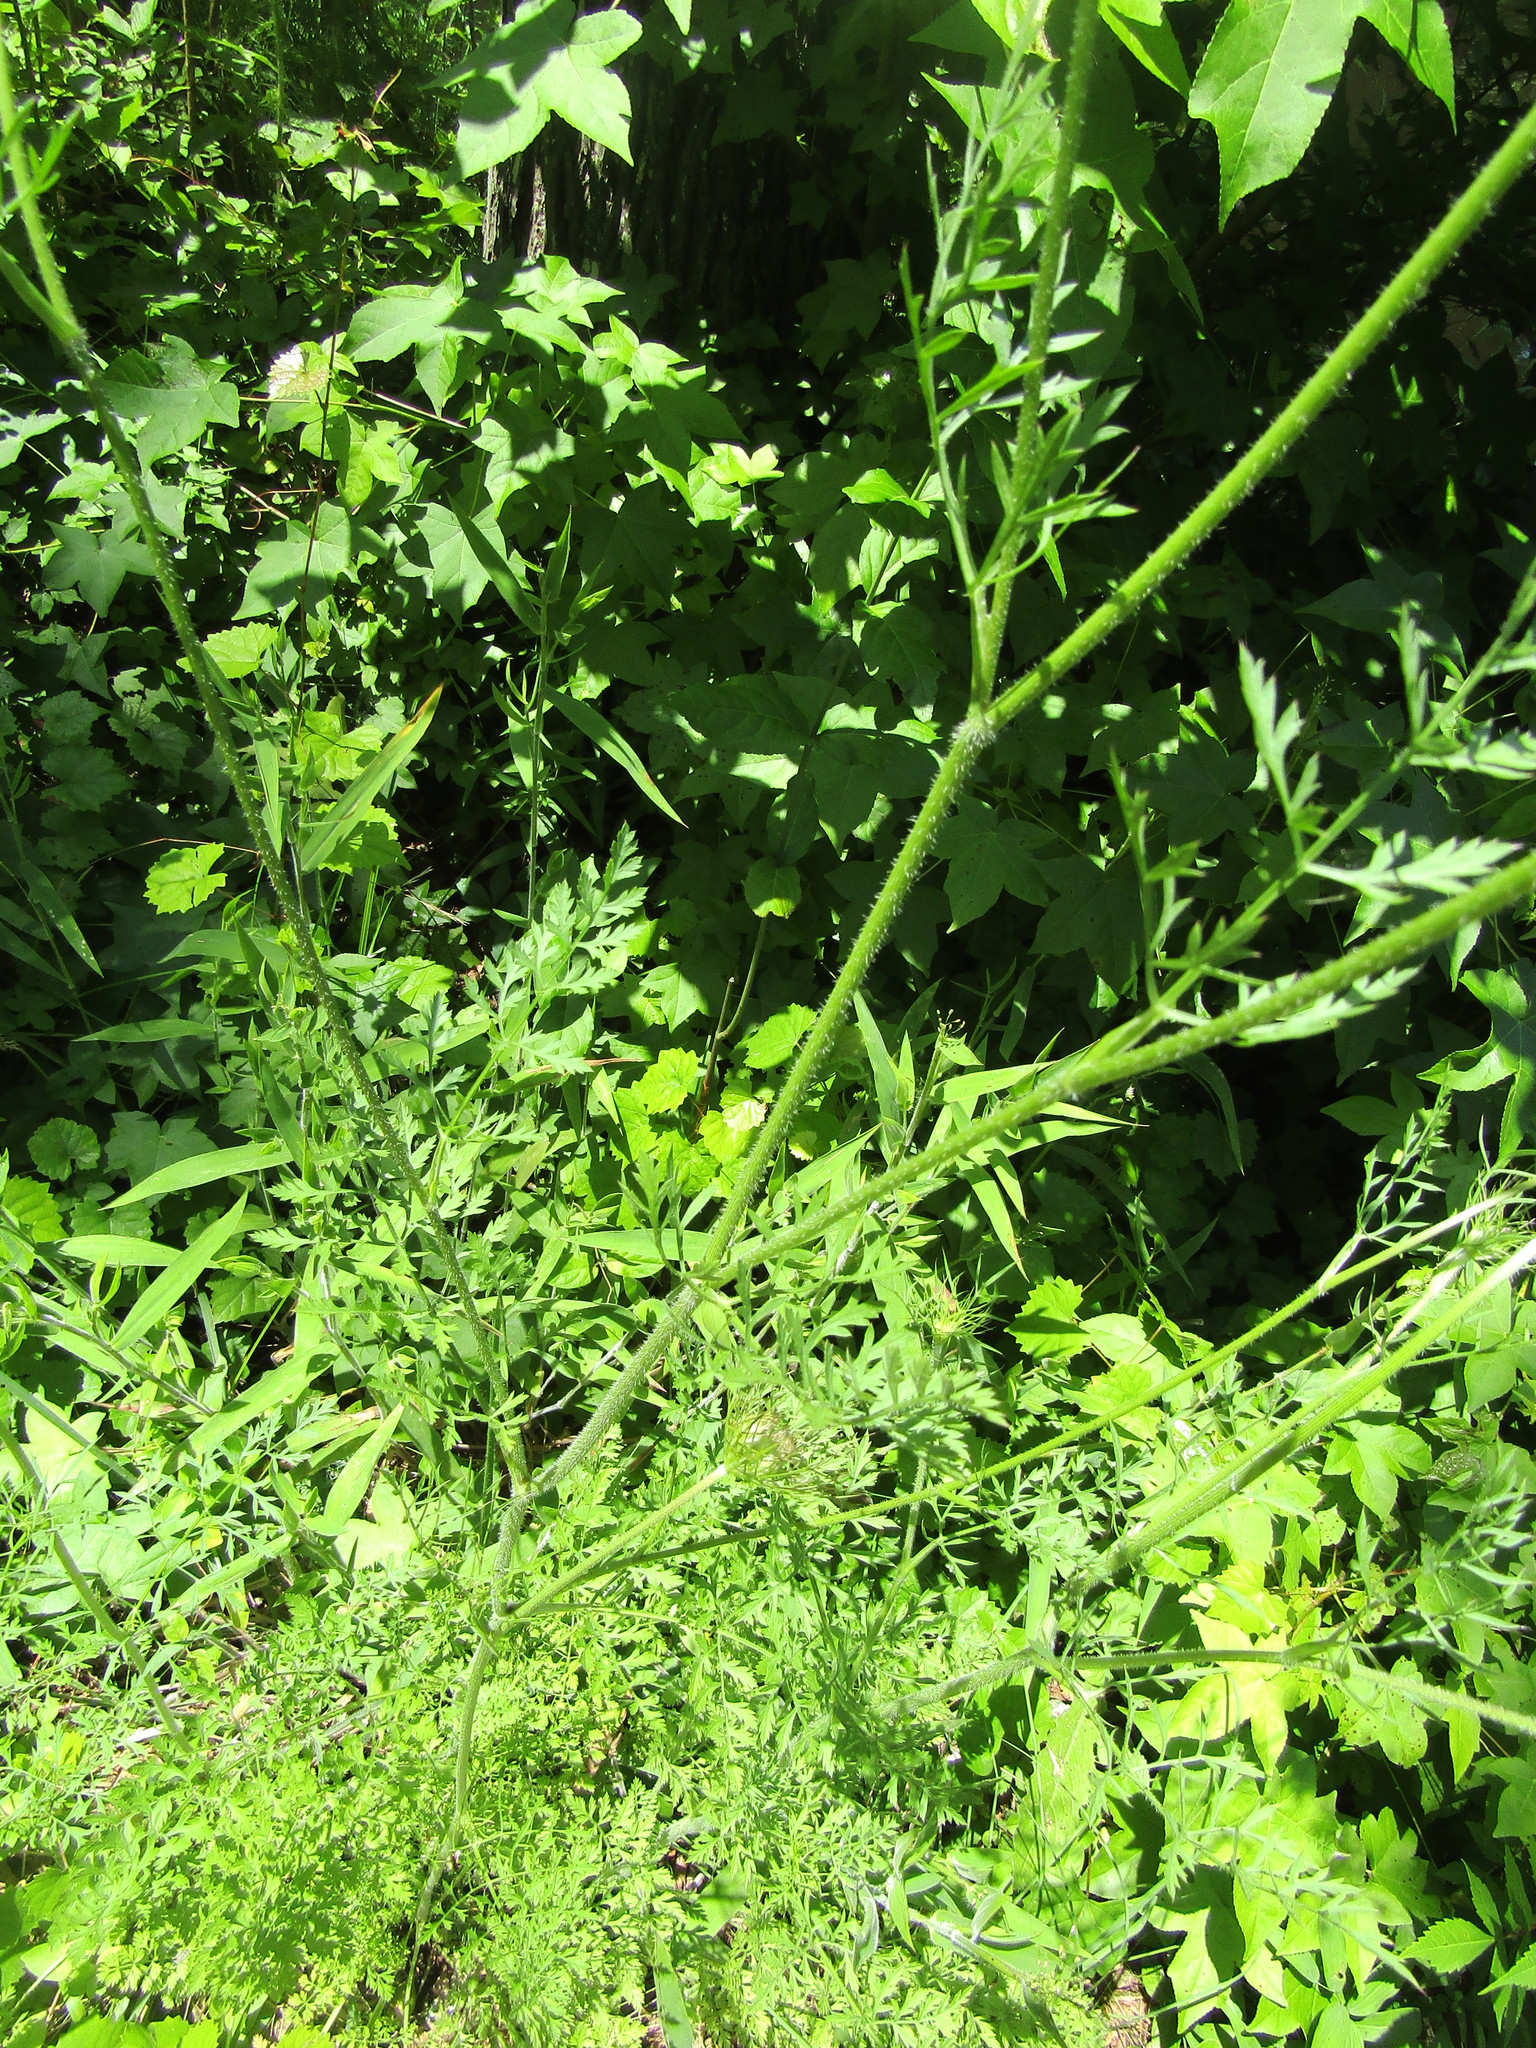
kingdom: Plantae
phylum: Tracheophyta
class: Magnoliopsida
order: Apiales
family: Apiaceae
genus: Daucus
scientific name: Daucus carota
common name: Wild carrot
